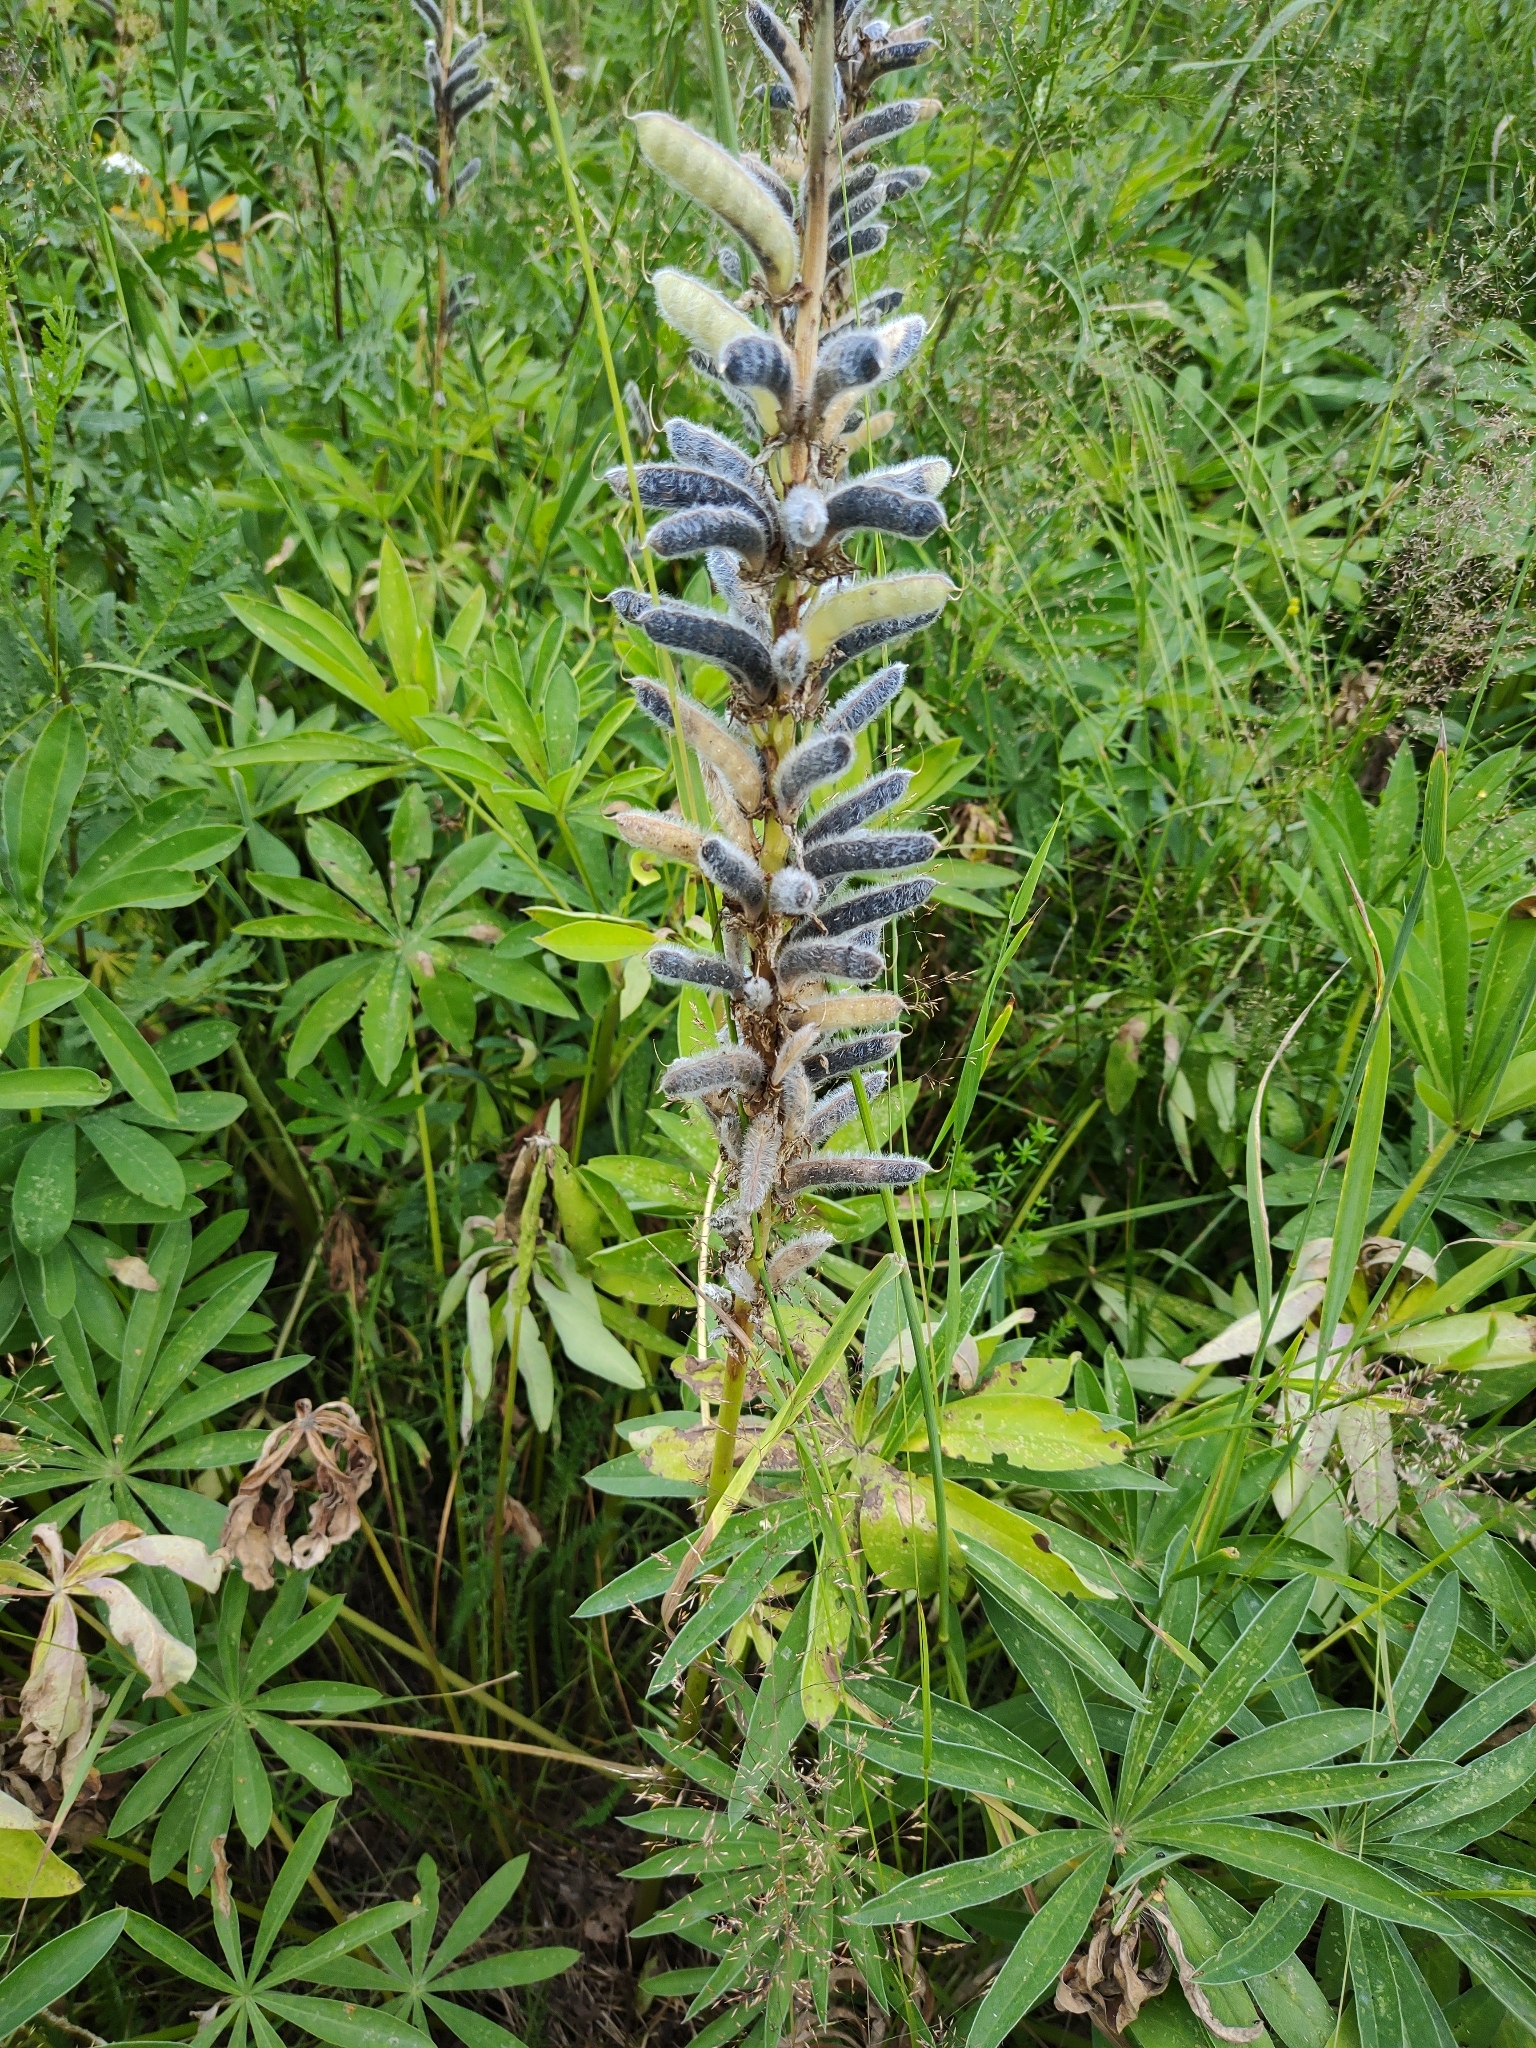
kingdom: Plantae
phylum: Tracheophyta
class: Magnoliopsida
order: Fabales
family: Fabaceae
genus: Lupinus
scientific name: Lupinus polyphyllus
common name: Garden lupin
